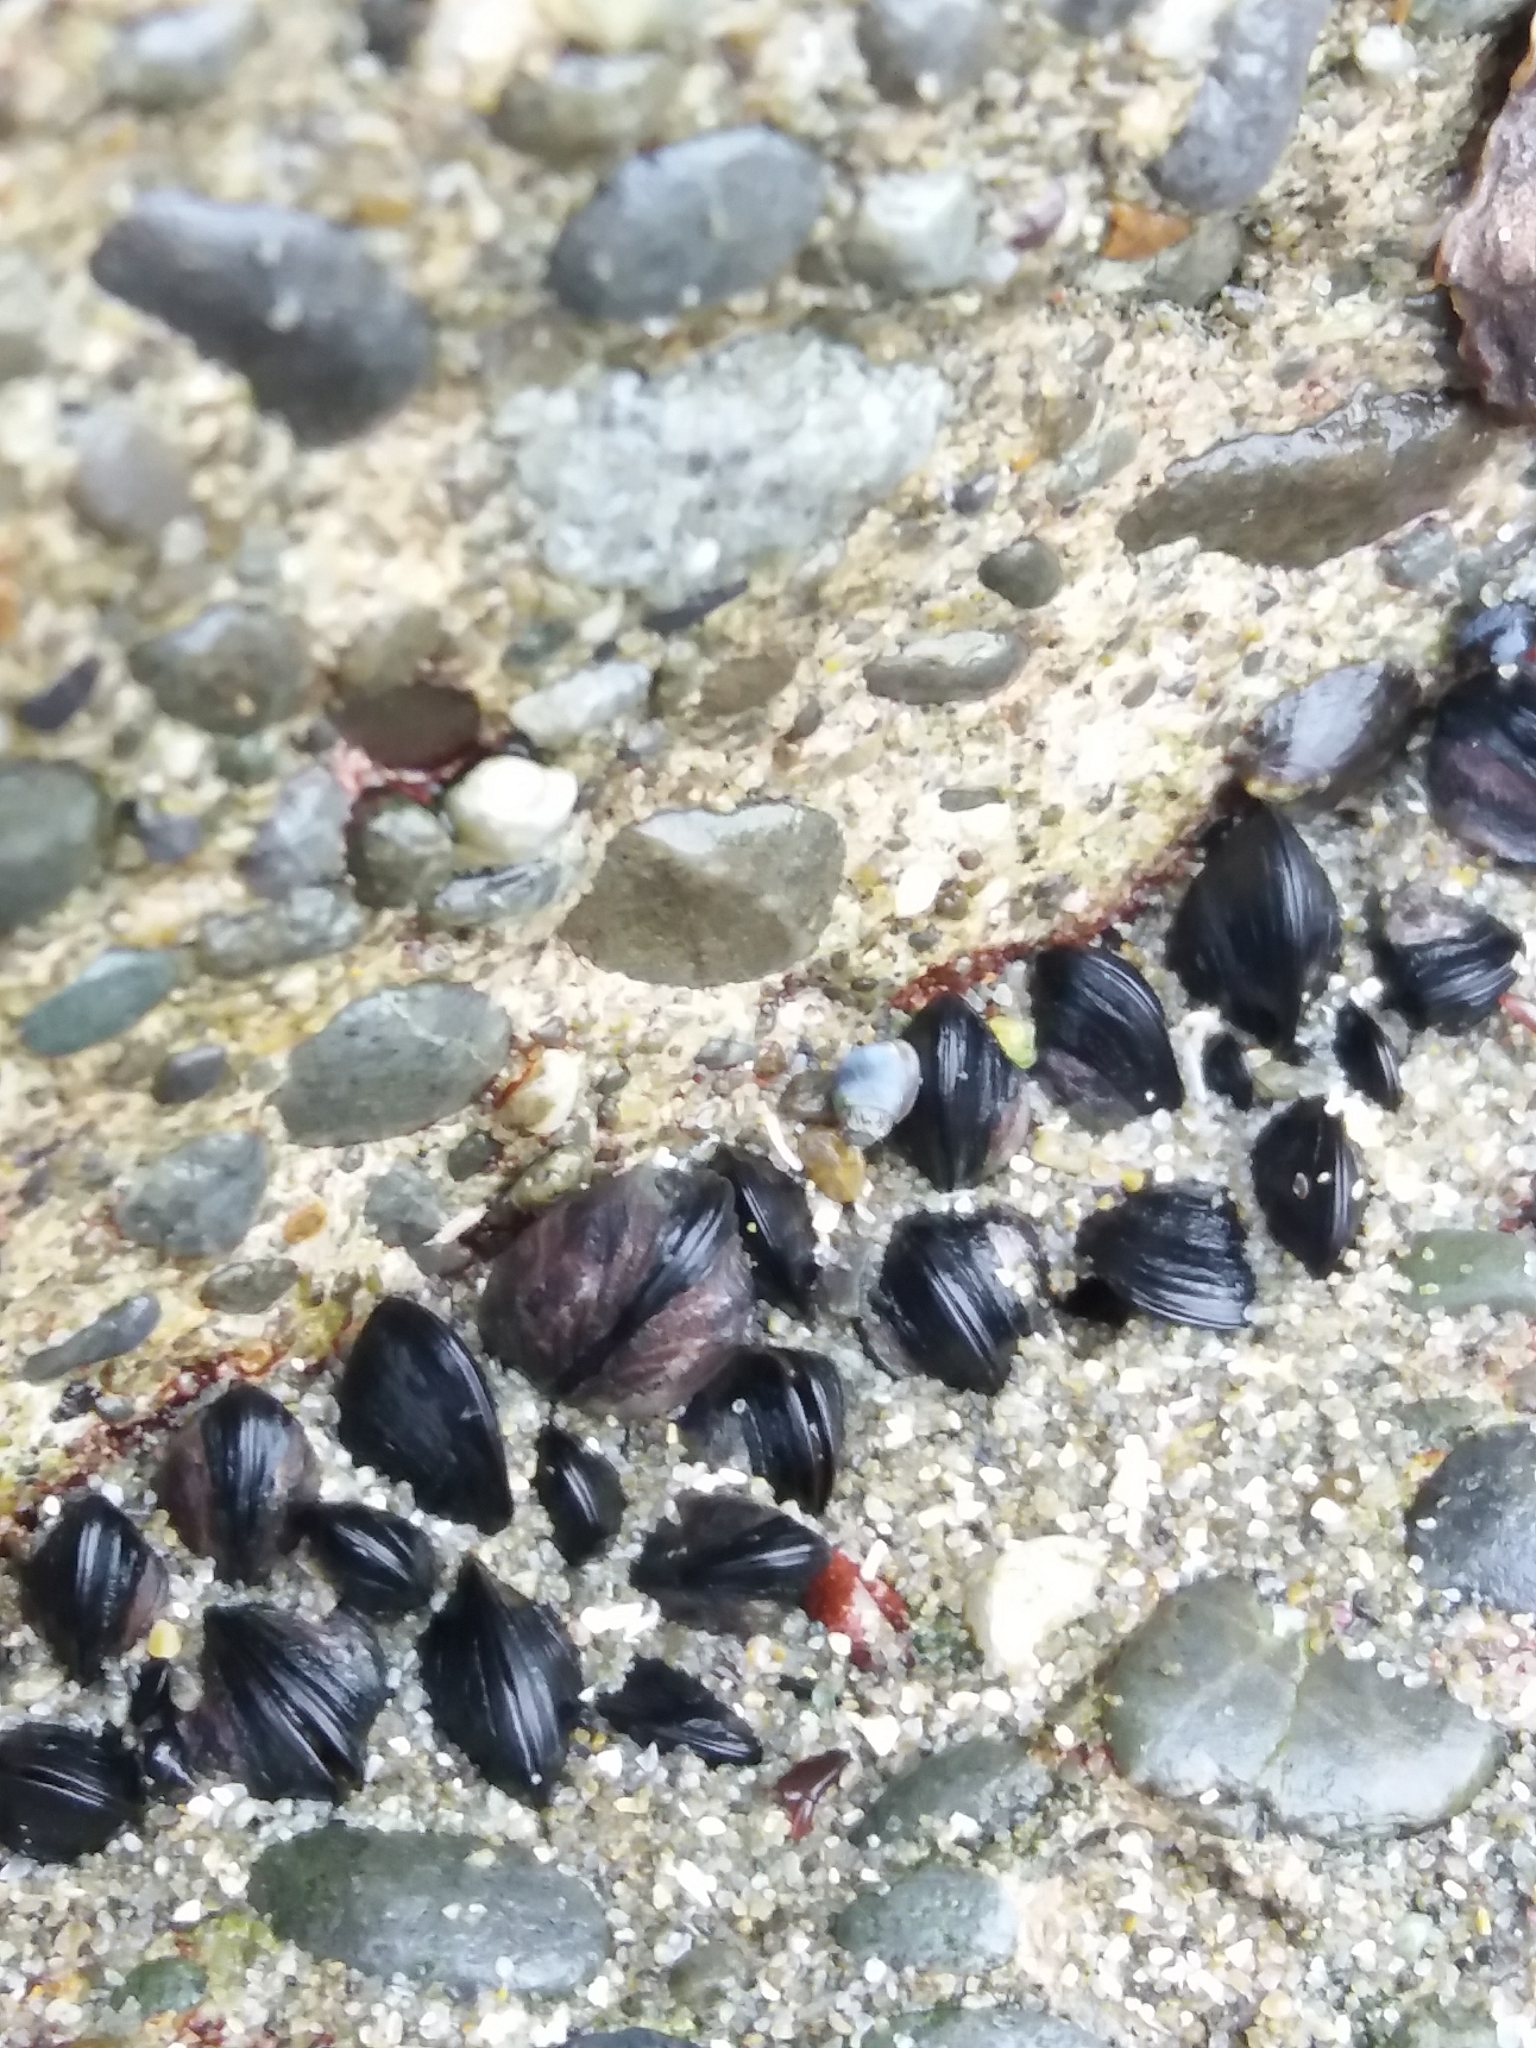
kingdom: Animalia
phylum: Mollusca
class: Bivalvia
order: Mytilida
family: Mytilidae
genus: Xenostrobus
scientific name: Xenostrobus neozelanicus
